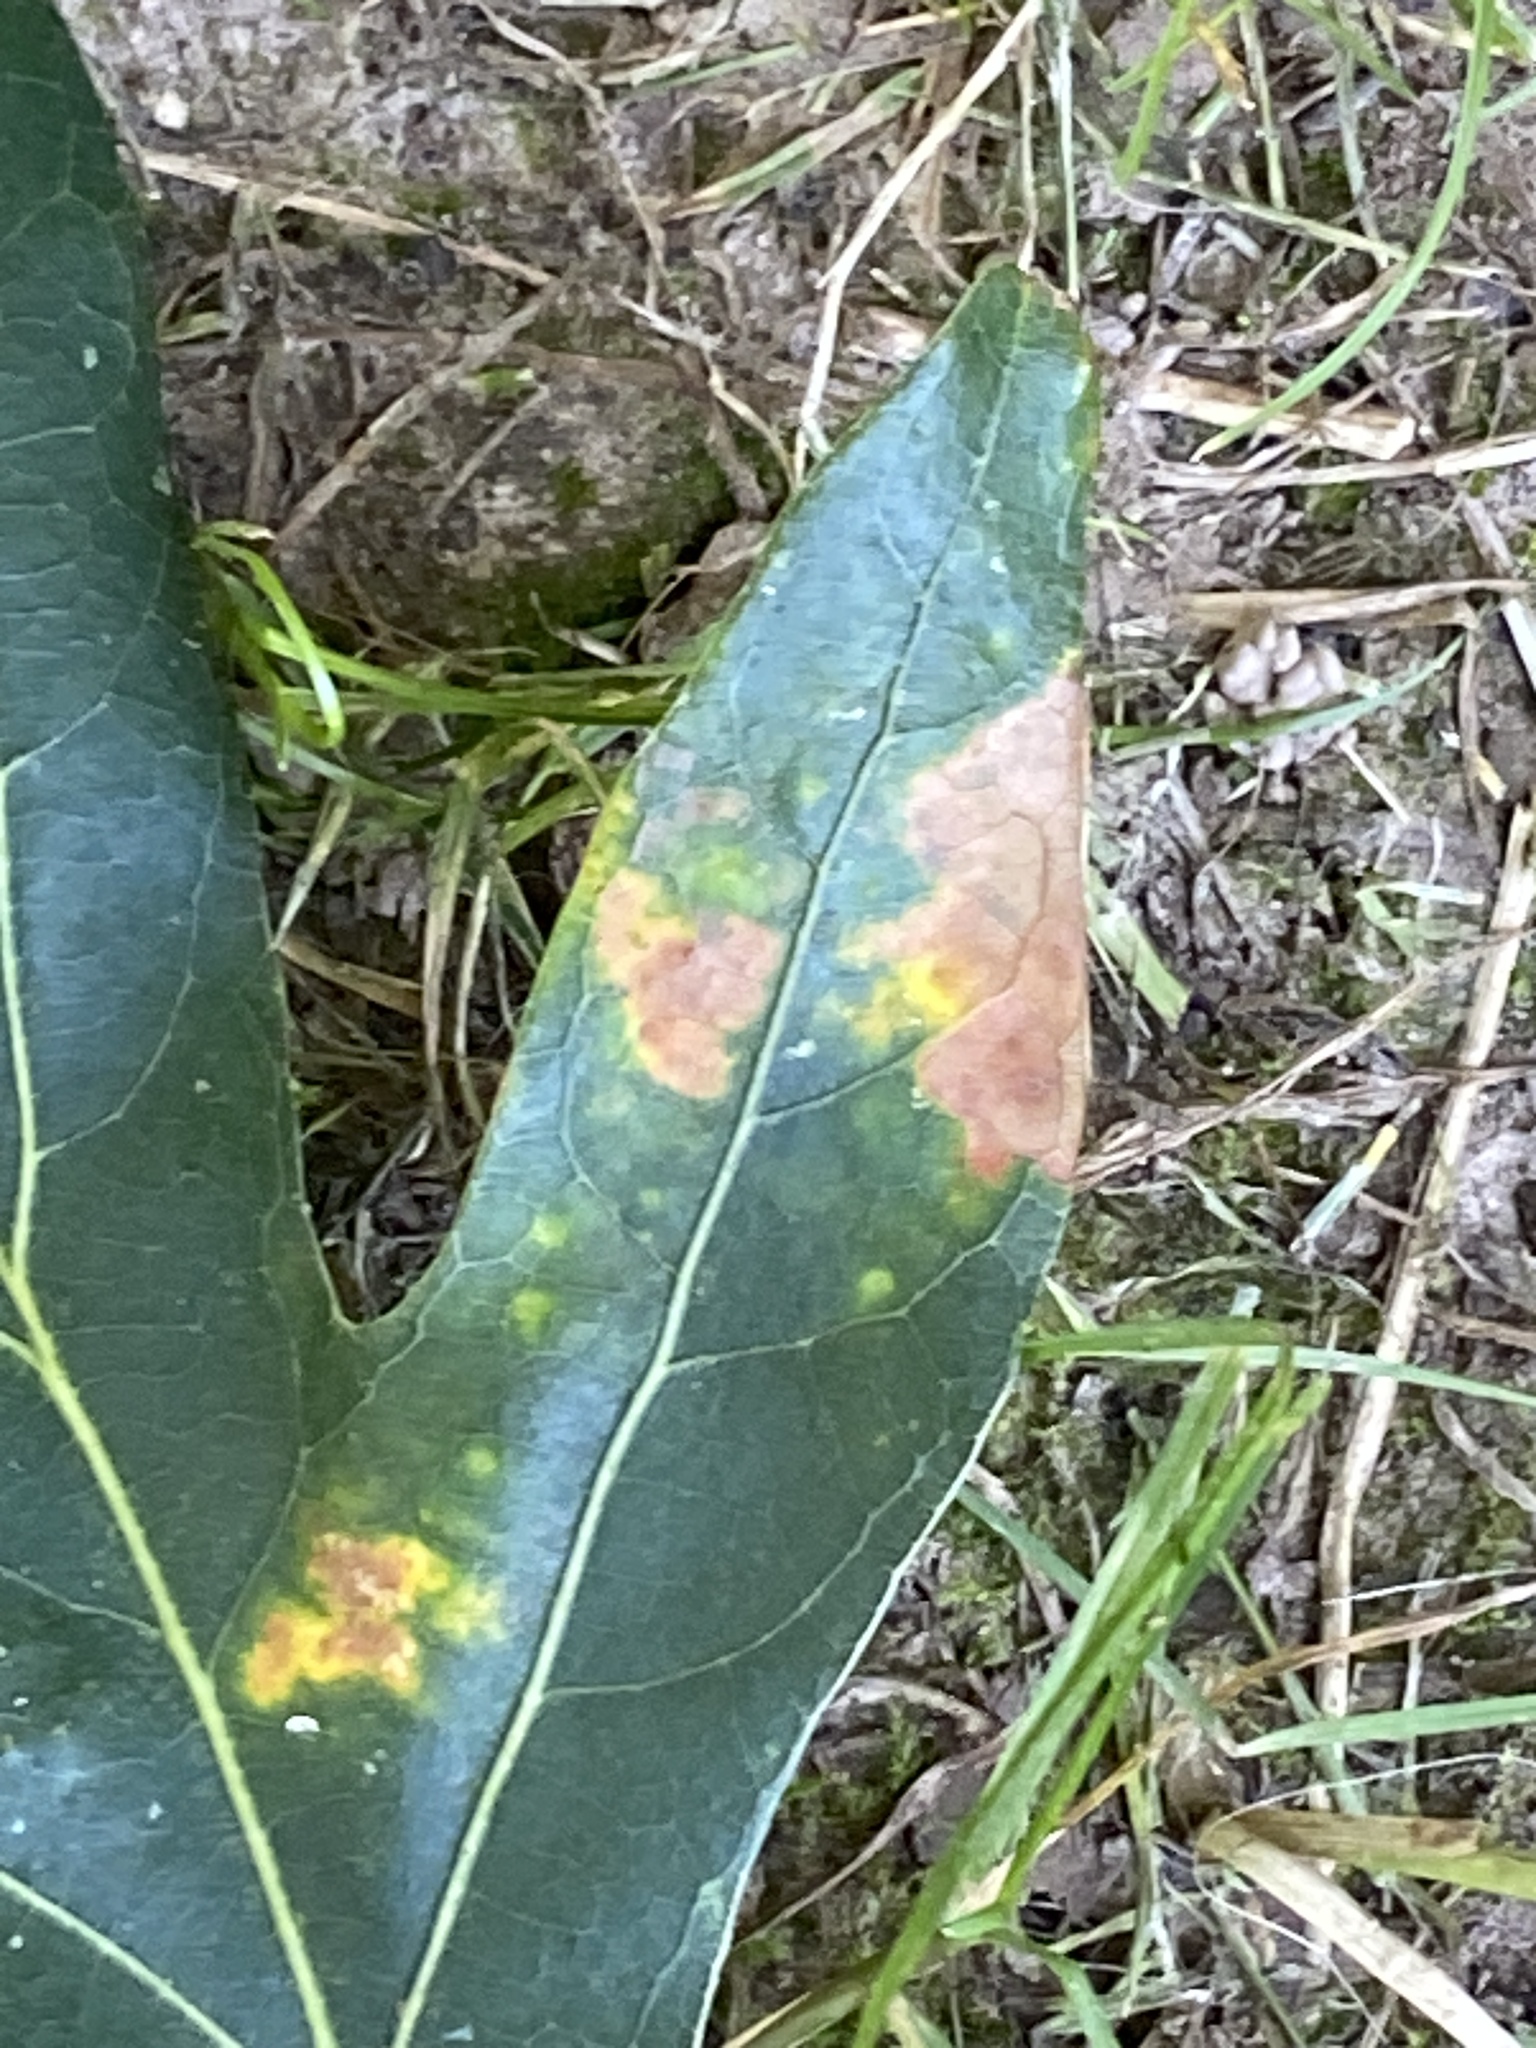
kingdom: Animalia
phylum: Arthropoda
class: Insecta
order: Hymenoptera
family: Cynipidae
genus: Phylloteras
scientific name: Phylloteras poculum
